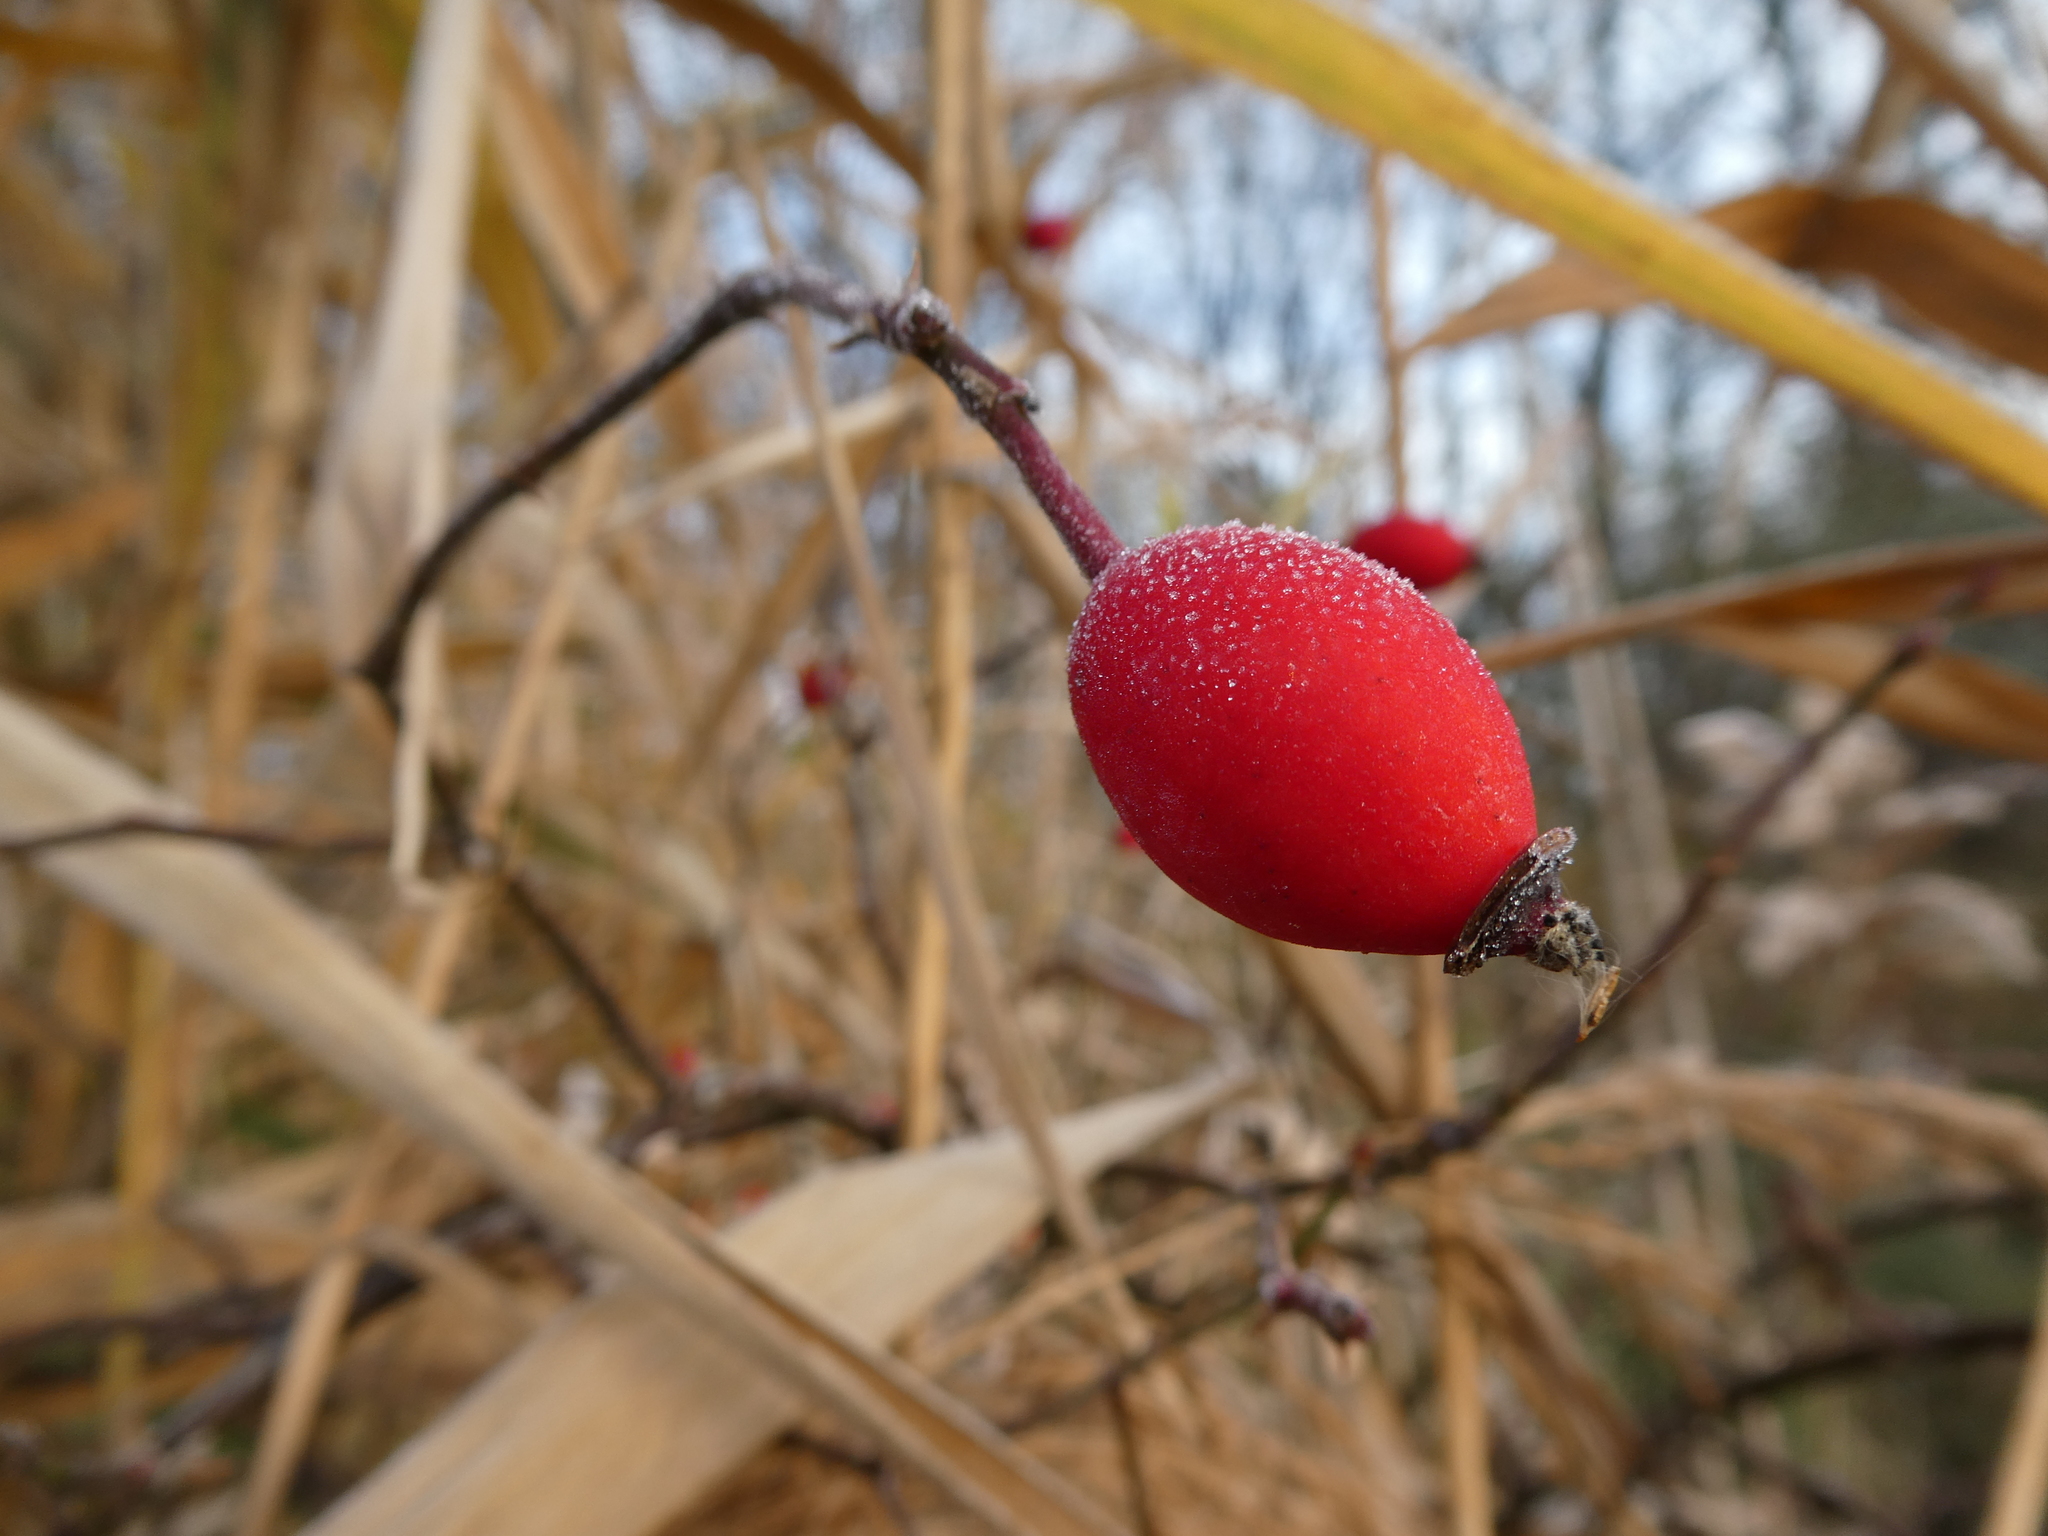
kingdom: Plantae
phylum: Tracheophyta
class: Magnoliopsida
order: Rosales
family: Rosaceae
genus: Rosa
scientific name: Rosa canina
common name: Dog rose
